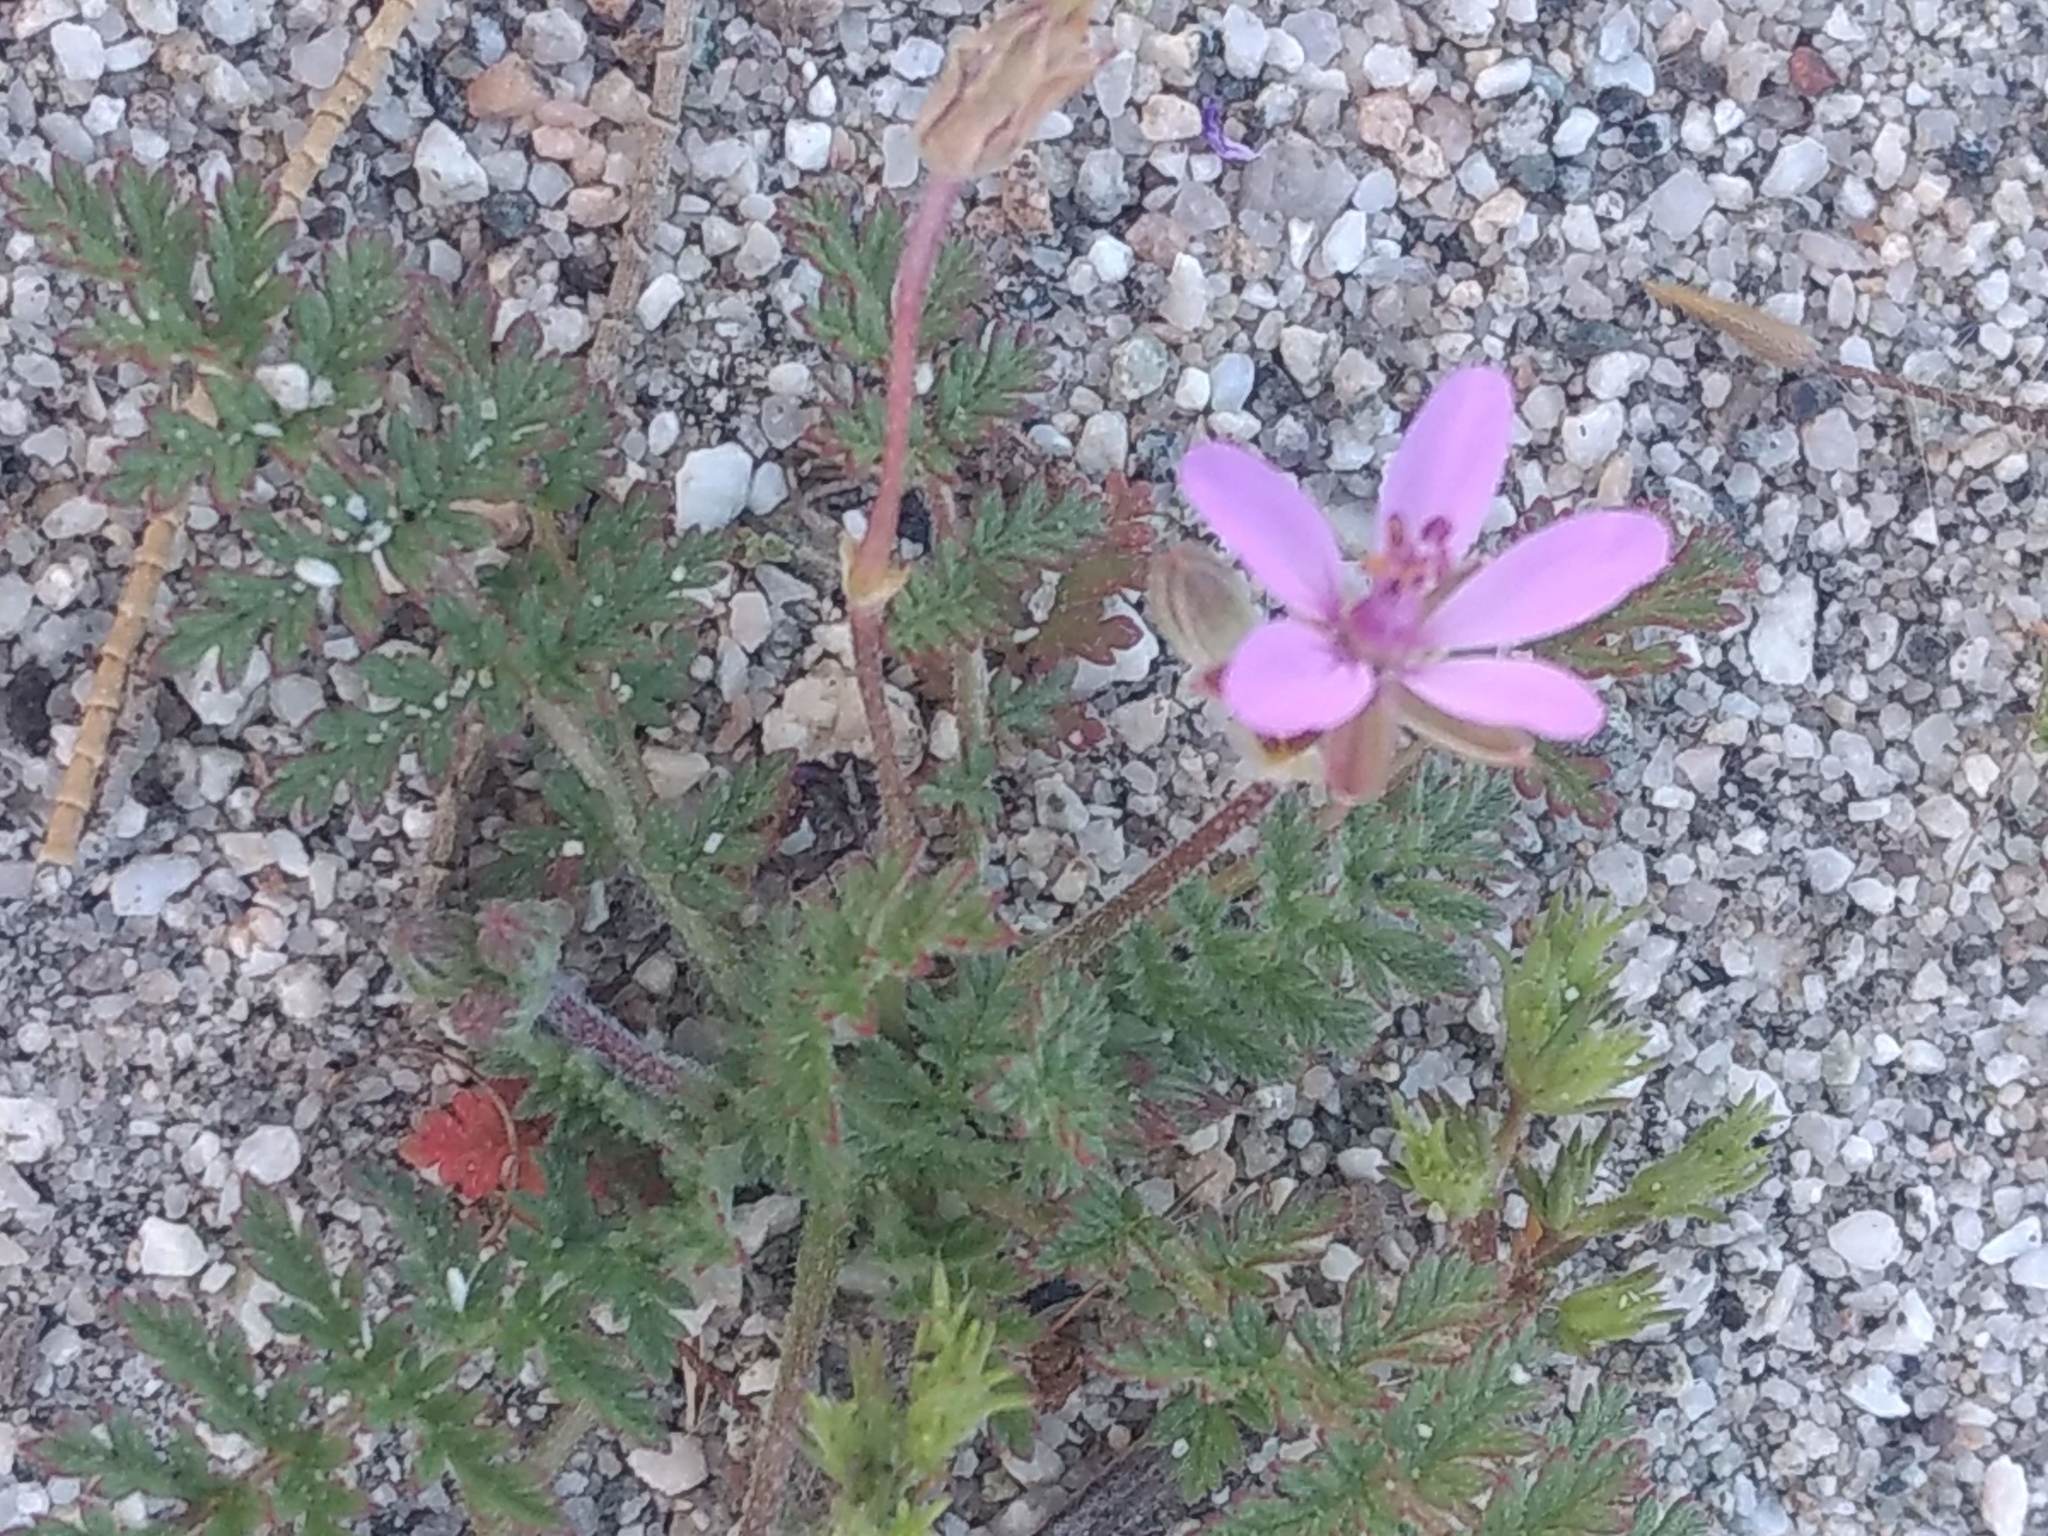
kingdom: Plantae
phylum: Tracheophyta
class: Magnoliopsida
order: Geraniales
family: Geraniaceae
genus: Erodium
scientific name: Erodium cicutarium
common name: Common stork's-bill
